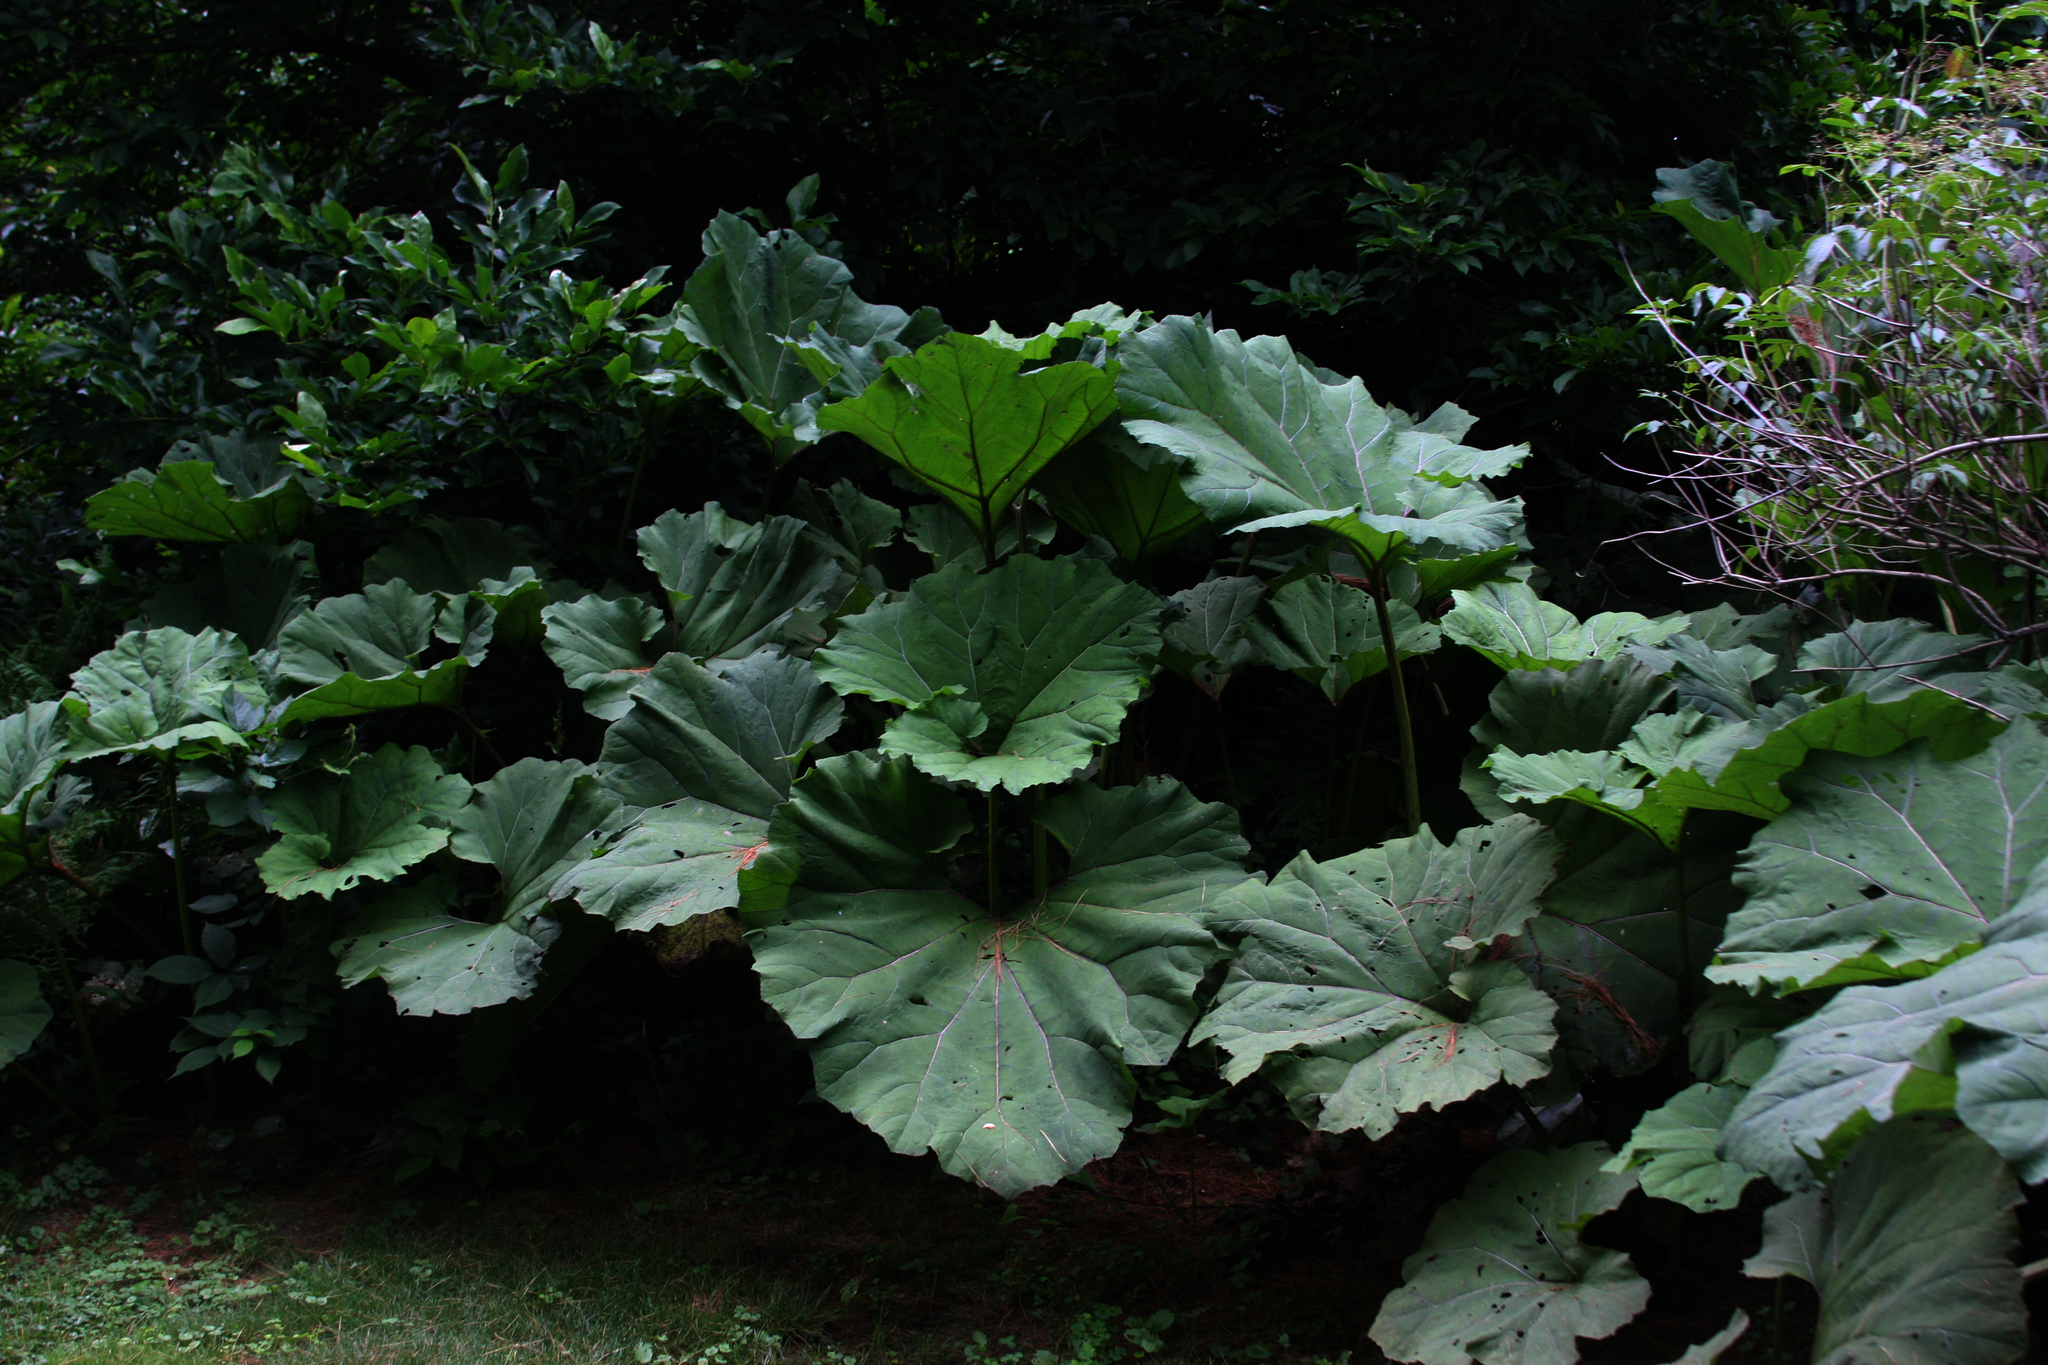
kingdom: Plantae
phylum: Tracheophyta
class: Magnoliopsida
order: Asterales
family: Asteraceae
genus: Petasites
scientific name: Petasites hybridus
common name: Butterbur
